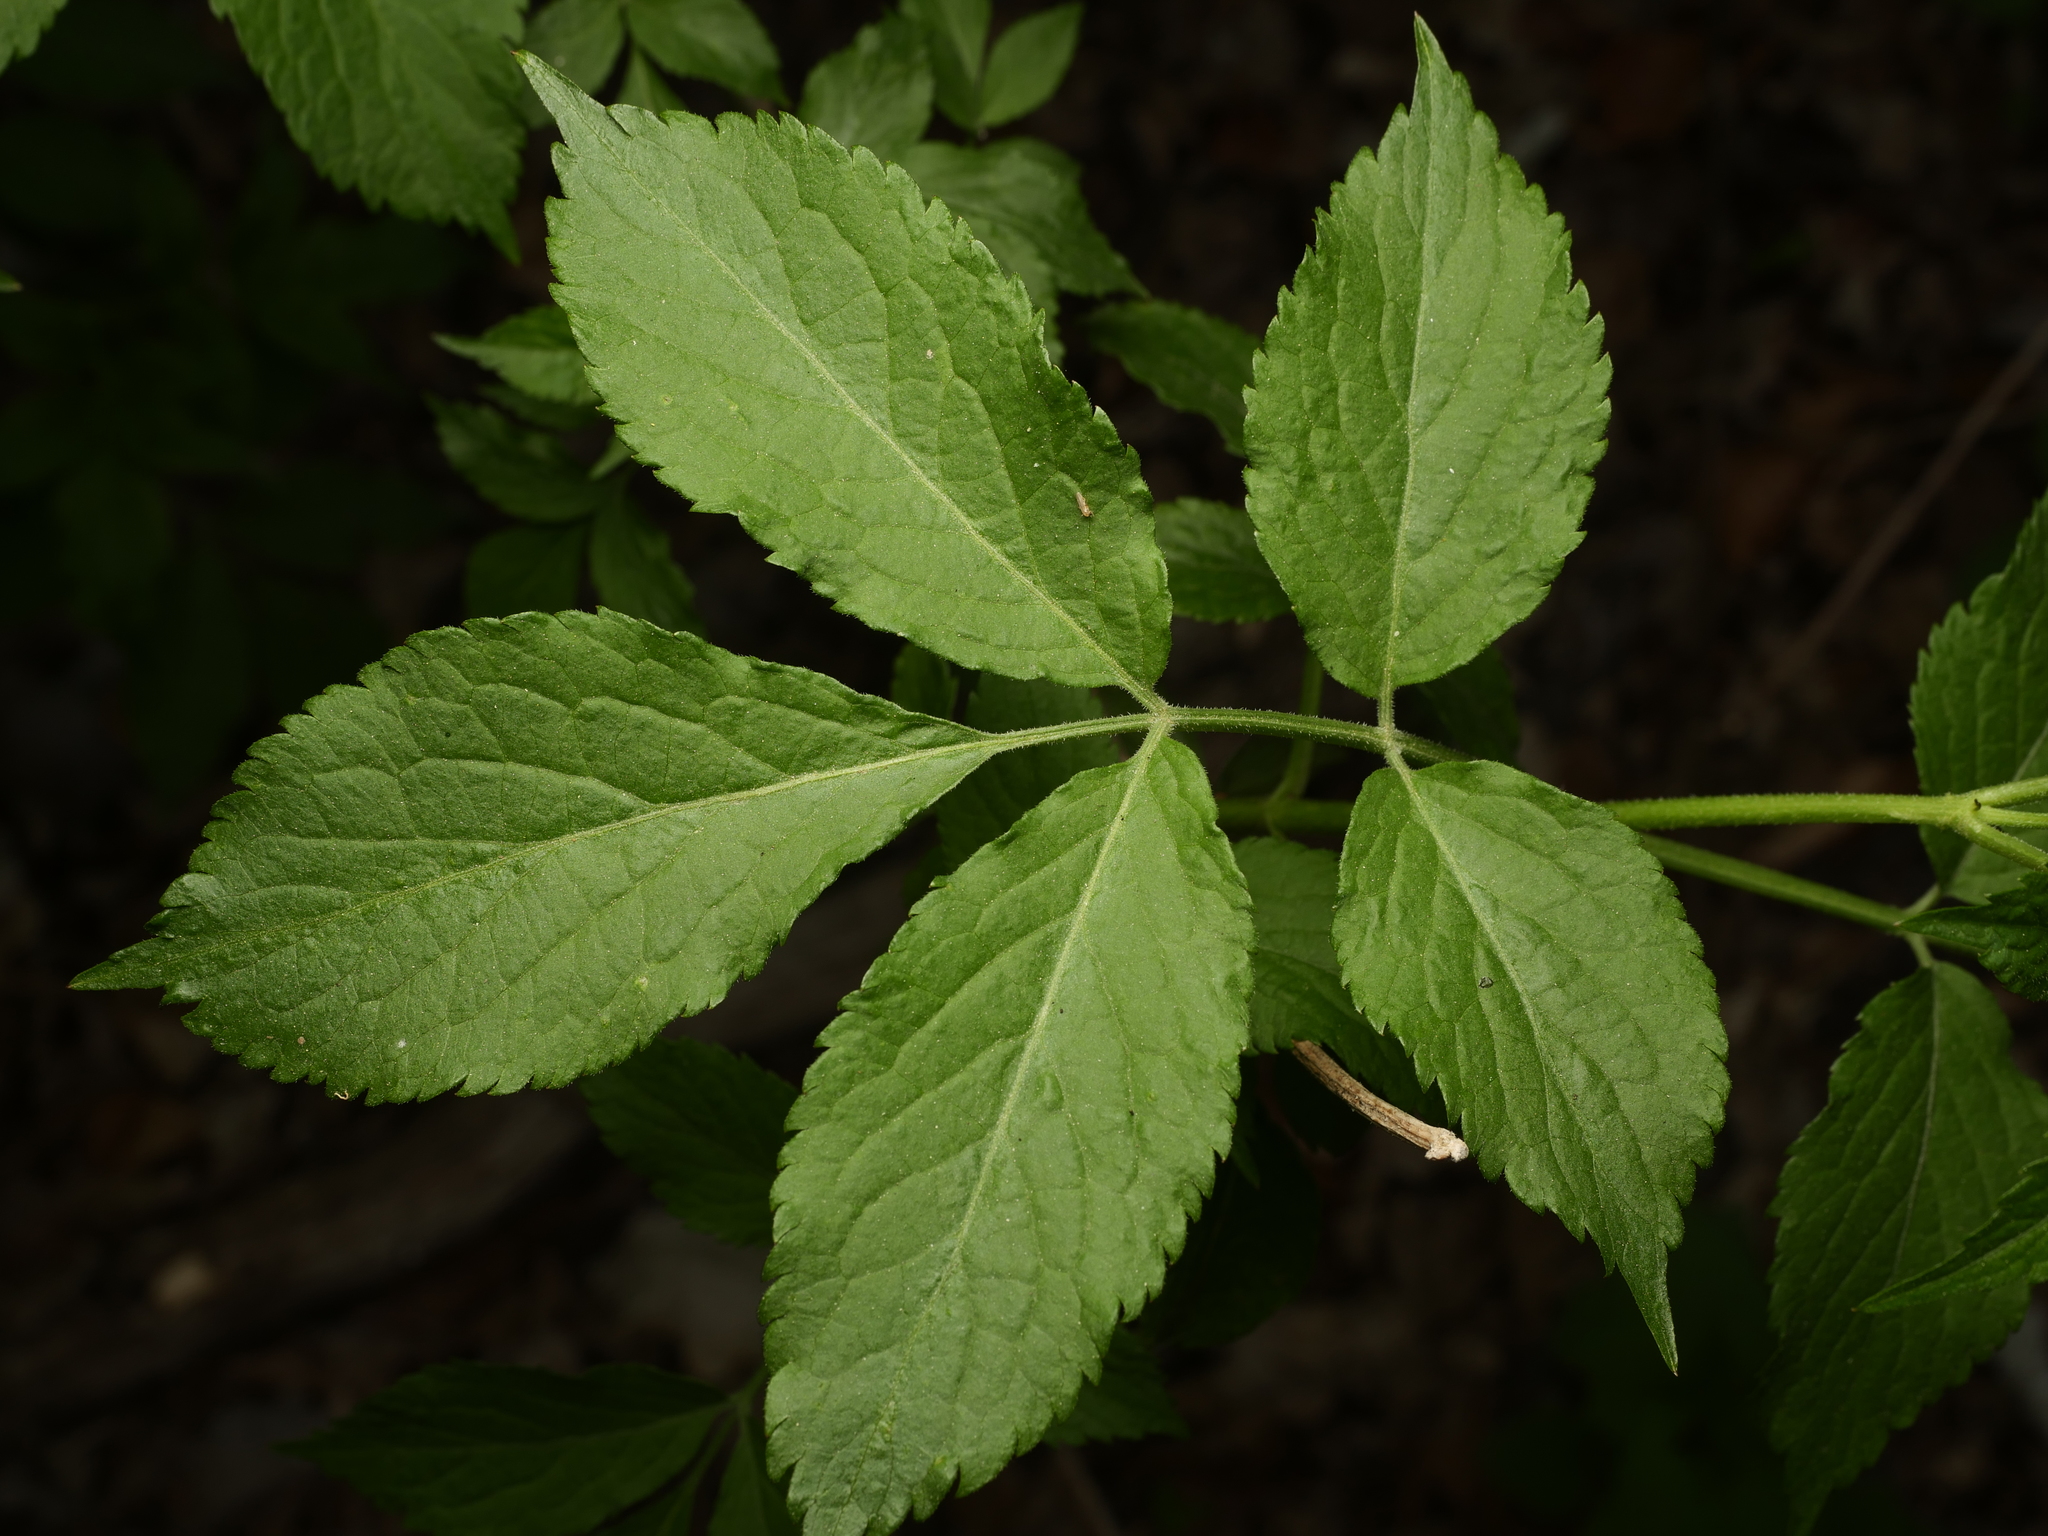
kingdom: Plantae
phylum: Tracheophyta
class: Magnoliopsida
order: Dipsacales
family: Viburnaceae
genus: Sambucus
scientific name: Sambucus nigra
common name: Elder
